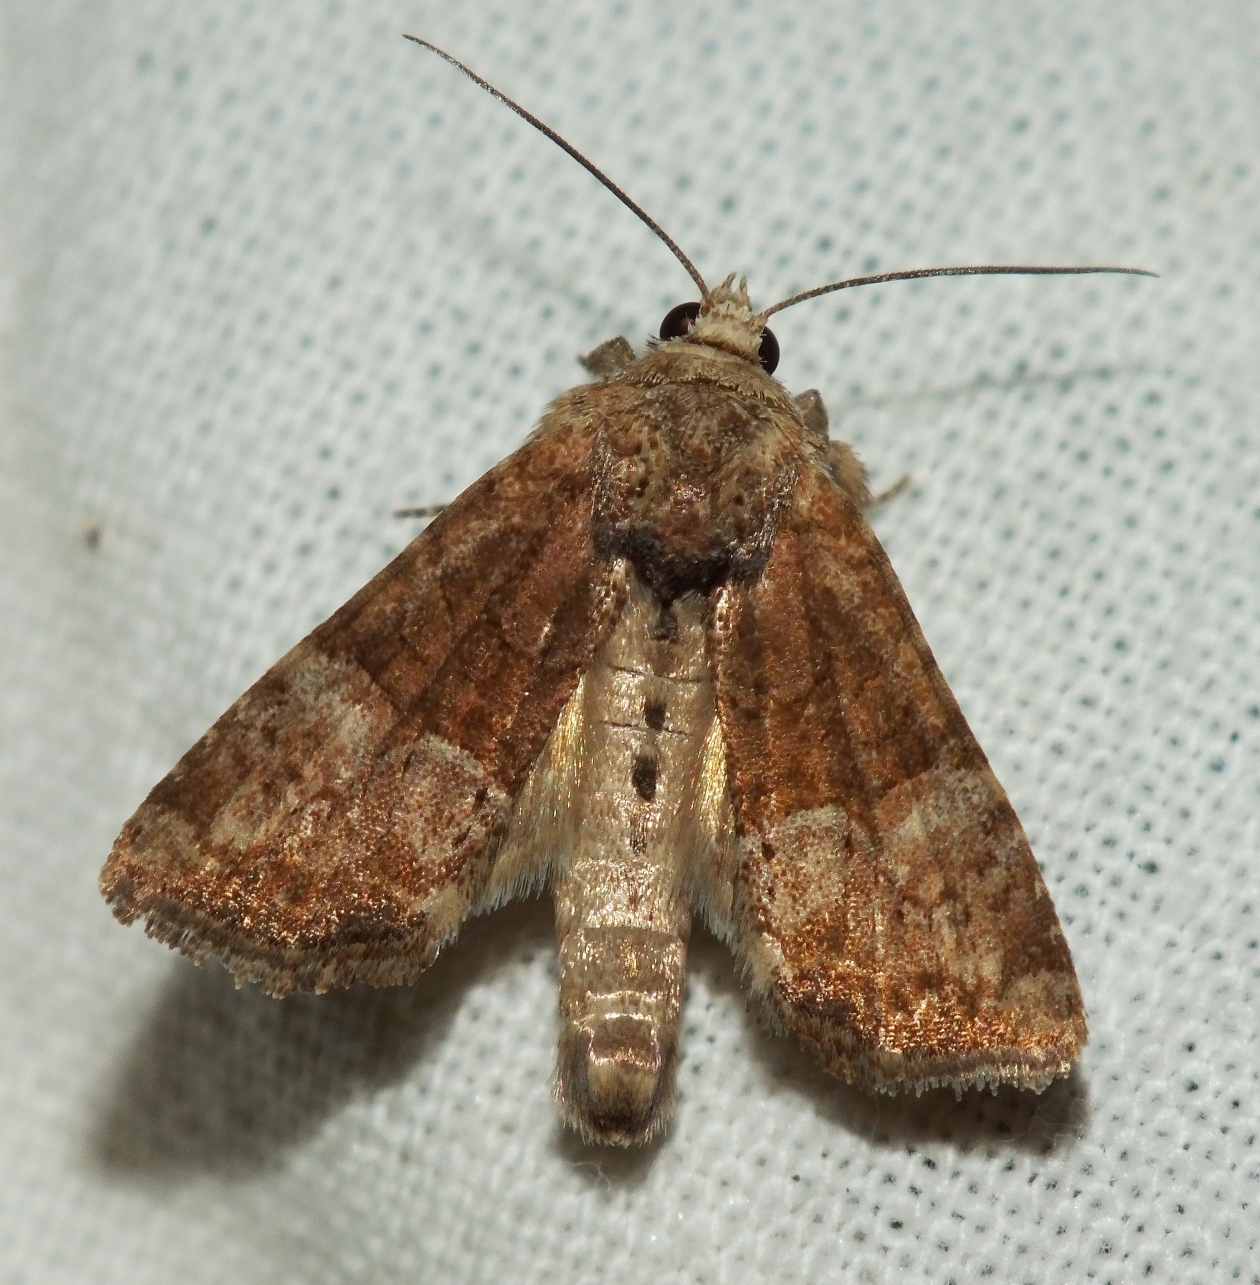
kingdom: Animalia
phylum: Arthropoda
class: Insecta
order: Lepidoptera
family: Noctuidae
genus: Mesoligia
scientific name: Mesoligia furuncula
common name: Cloaked minor
